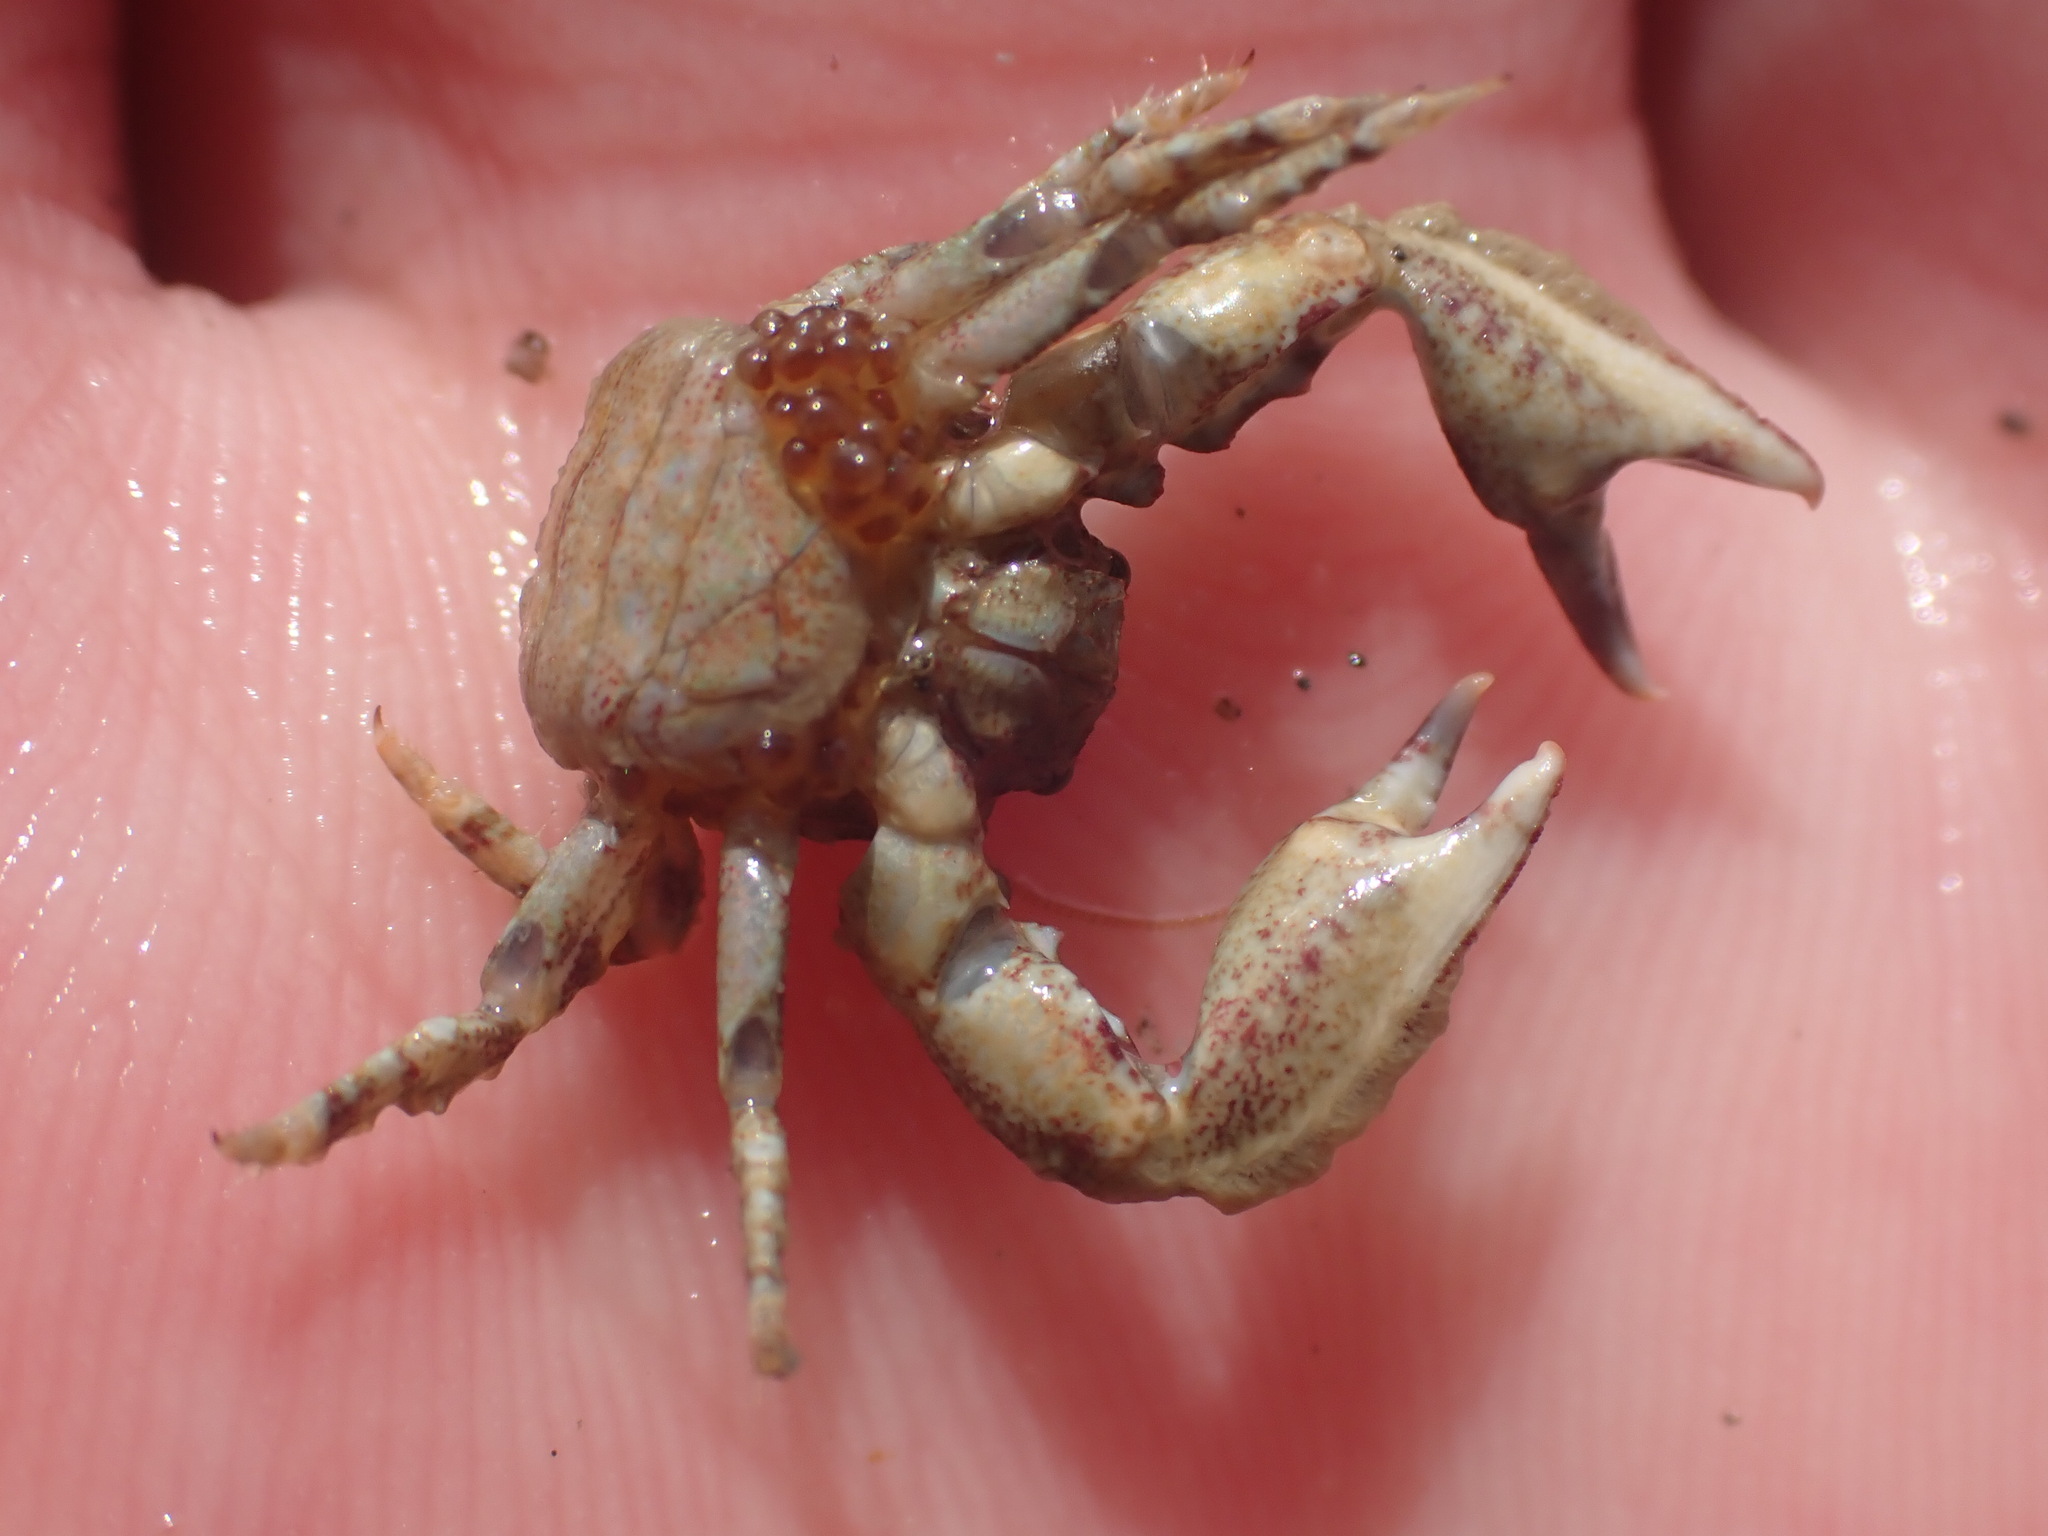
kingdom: Animalia
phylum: Arthropoda
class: Malacostraca
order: Decapoda
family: Porcellanidae
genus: Petrolisthes
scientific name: Petrolisthes novaezelandiae
